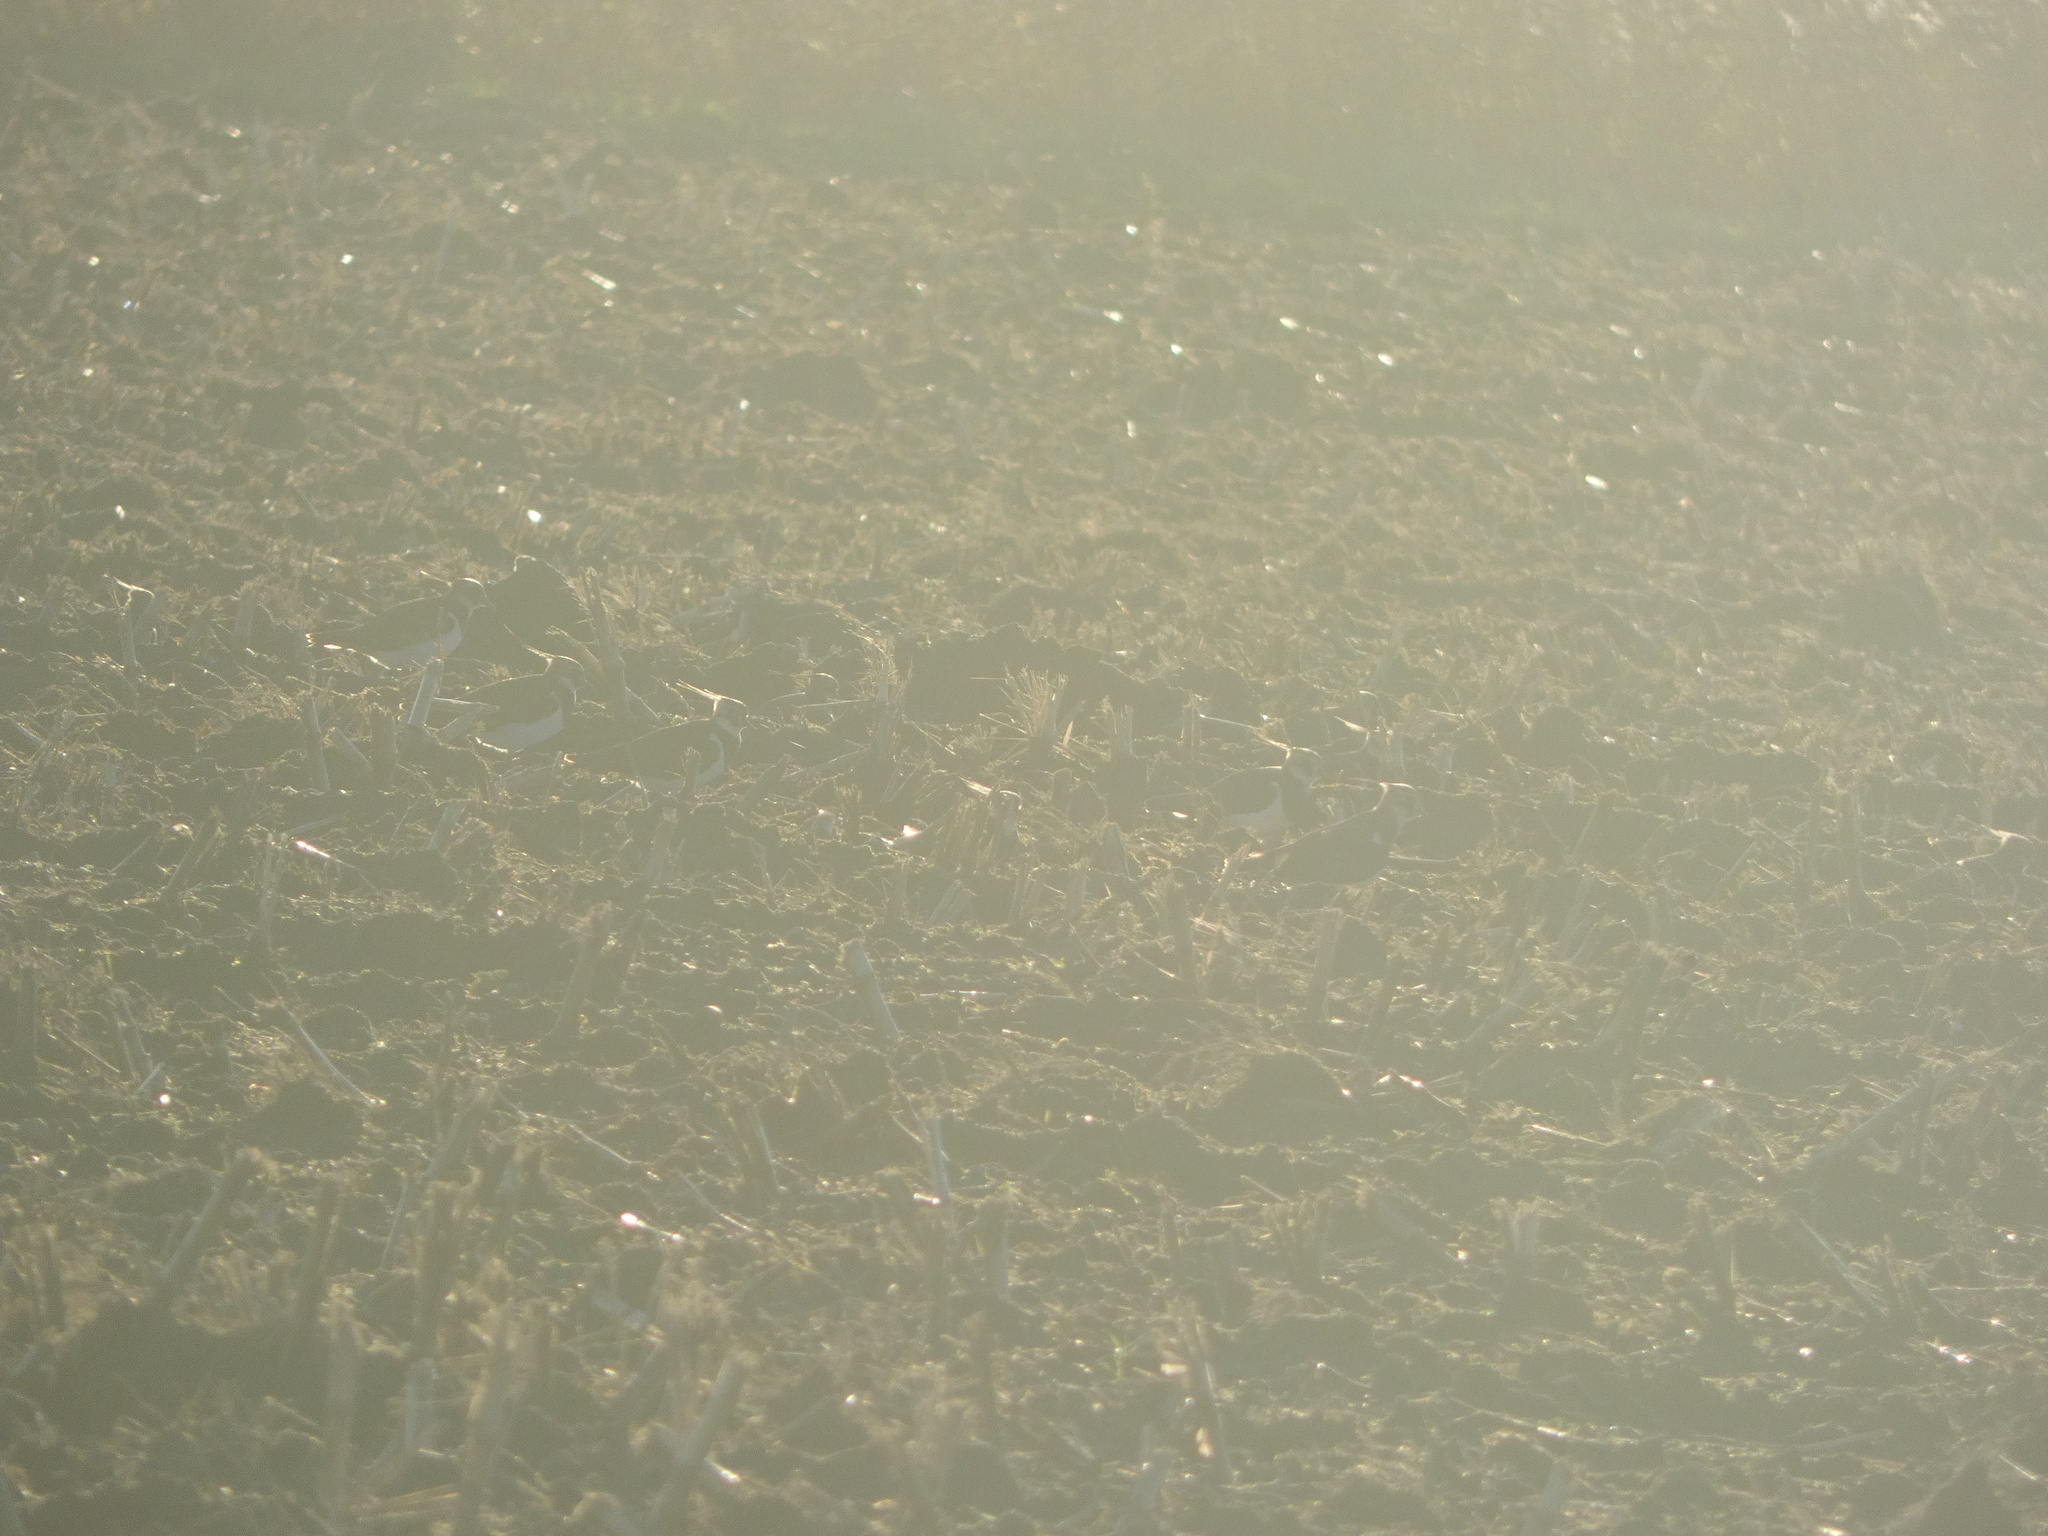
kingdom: Animalia
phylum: Chordata
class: Aves
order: Charadriiformes
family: Charadriidae
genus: Vanellus
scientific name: Vanellus vanellus
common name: Northern lapwing
